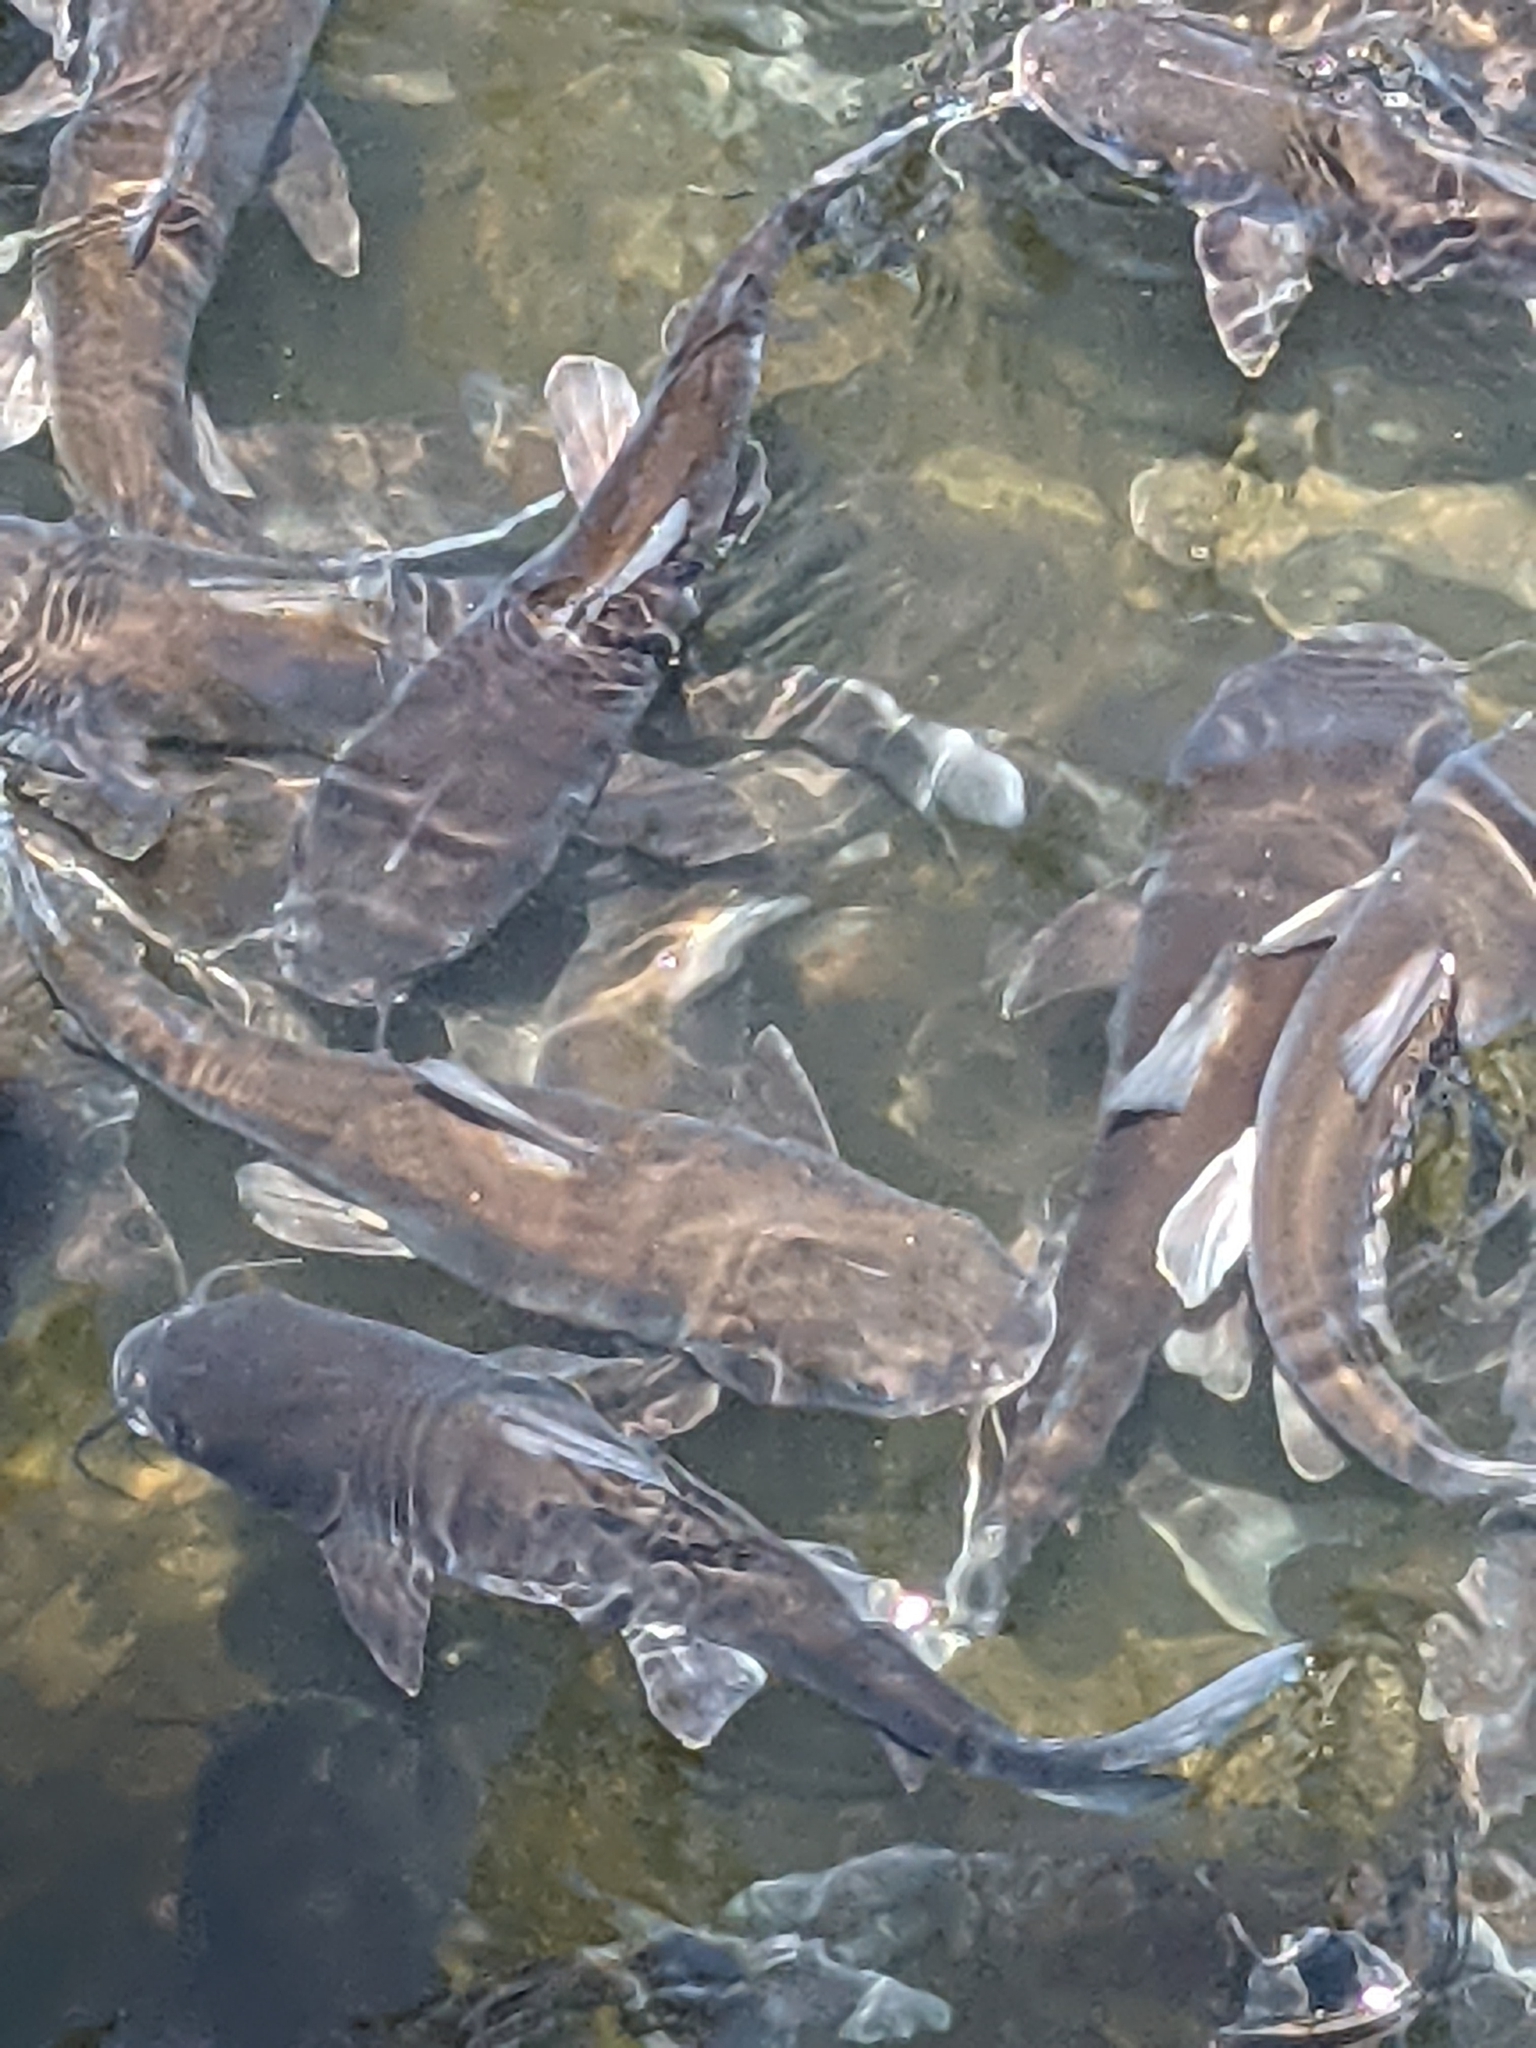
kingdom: Animalia
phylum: Chordata
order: Siluriformes
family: Ariidae
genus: Ariopsis
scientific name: Ariopsis felis
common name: Hardhead catfish
